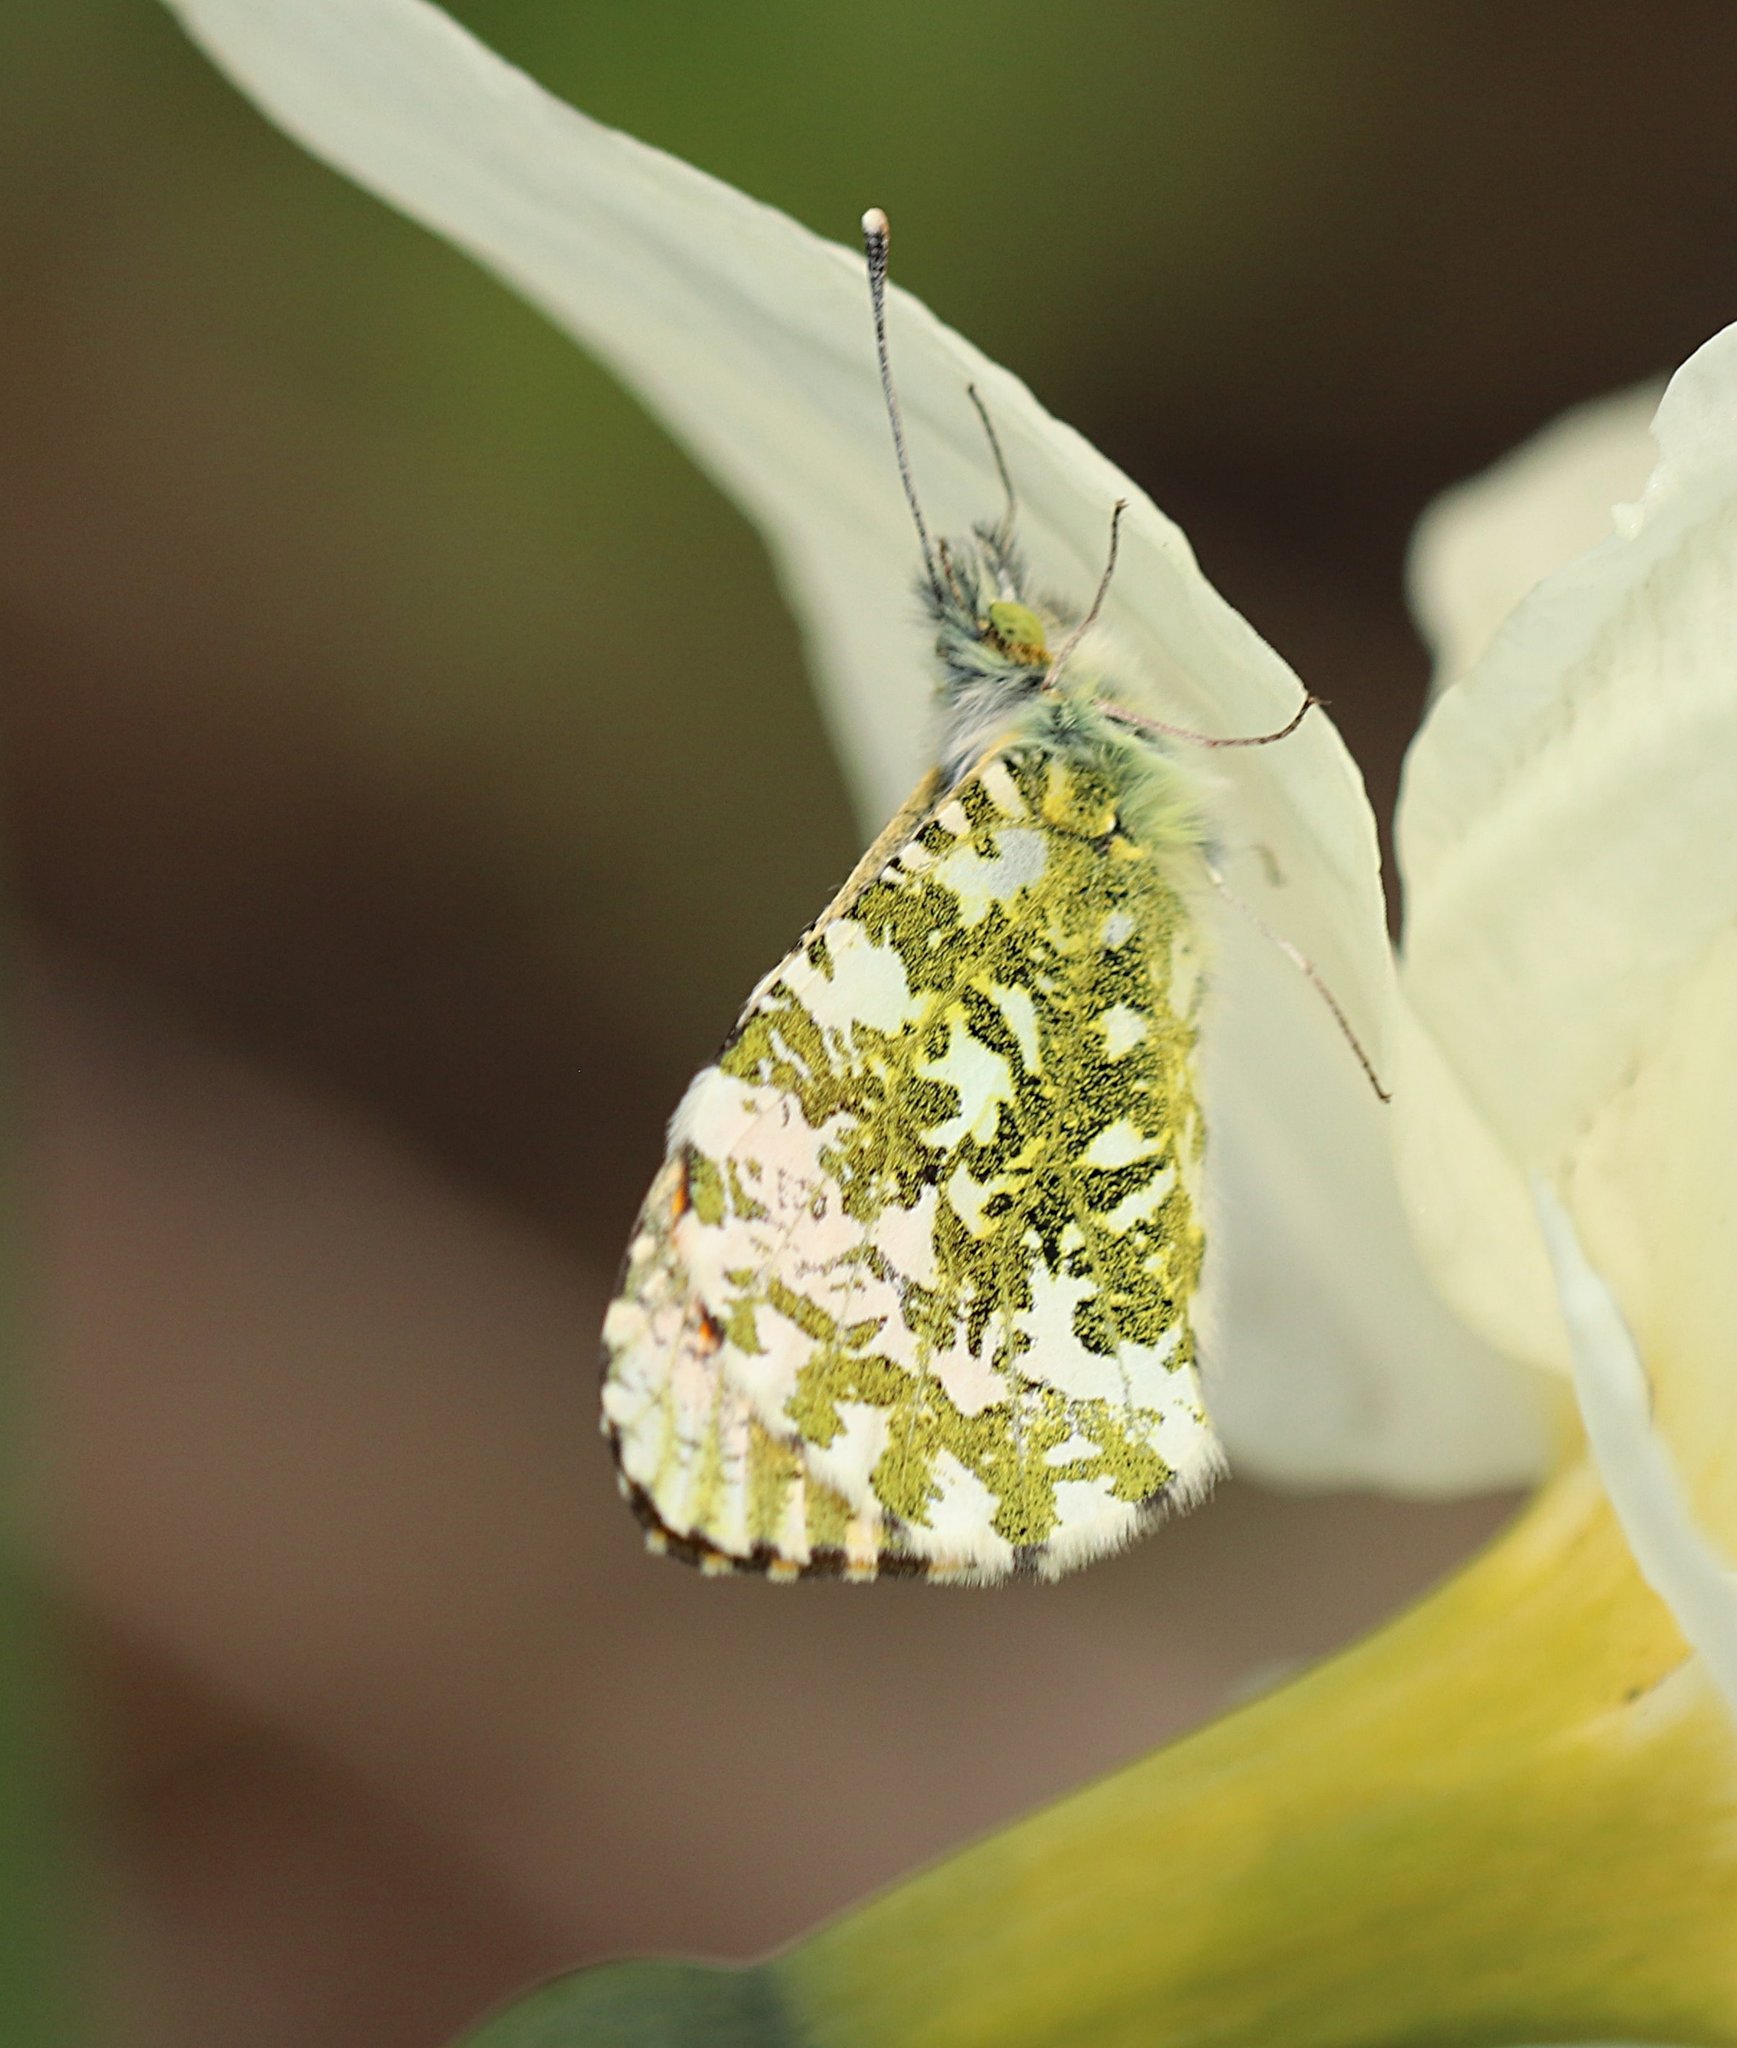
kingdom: Animalia
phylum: Arthropoda
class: Insecta
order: Lepidoptera
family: Pieridae
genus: Anthocharis
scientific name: Anthocharis cardamines
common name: Orange-tip
